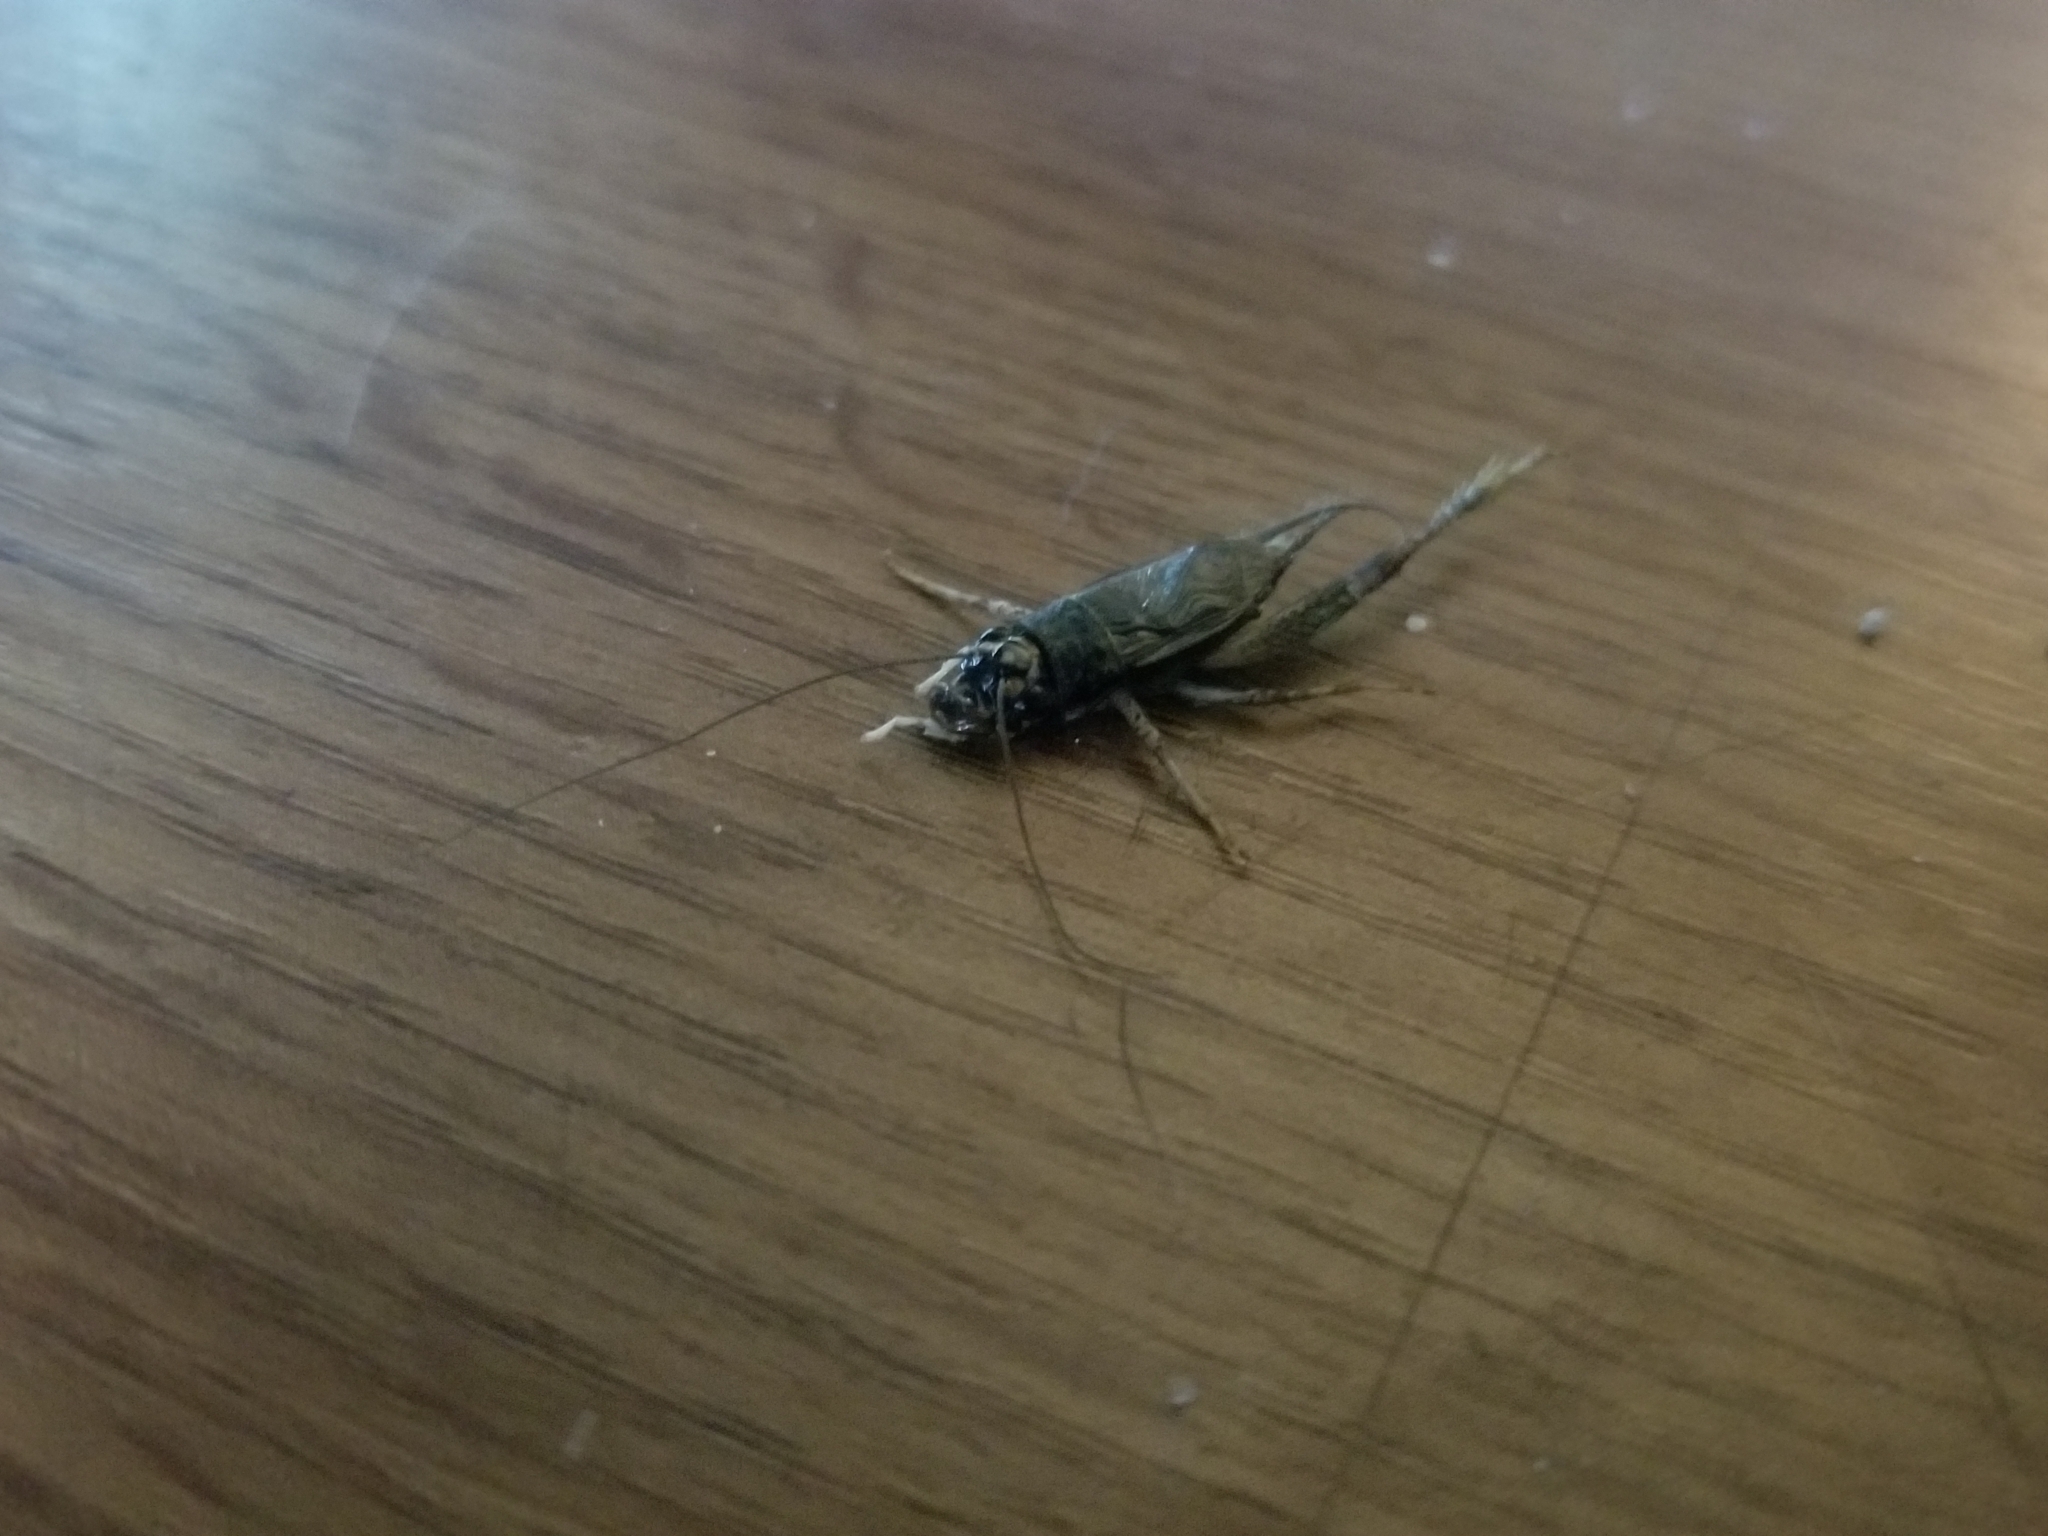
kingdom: Animalia
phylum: Arthropoda
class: Insecta
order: Orthoptera
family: Gryllidae
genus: Velarifictorus
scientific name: Velarifictorus micado
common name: Japanese burrowing cricket
